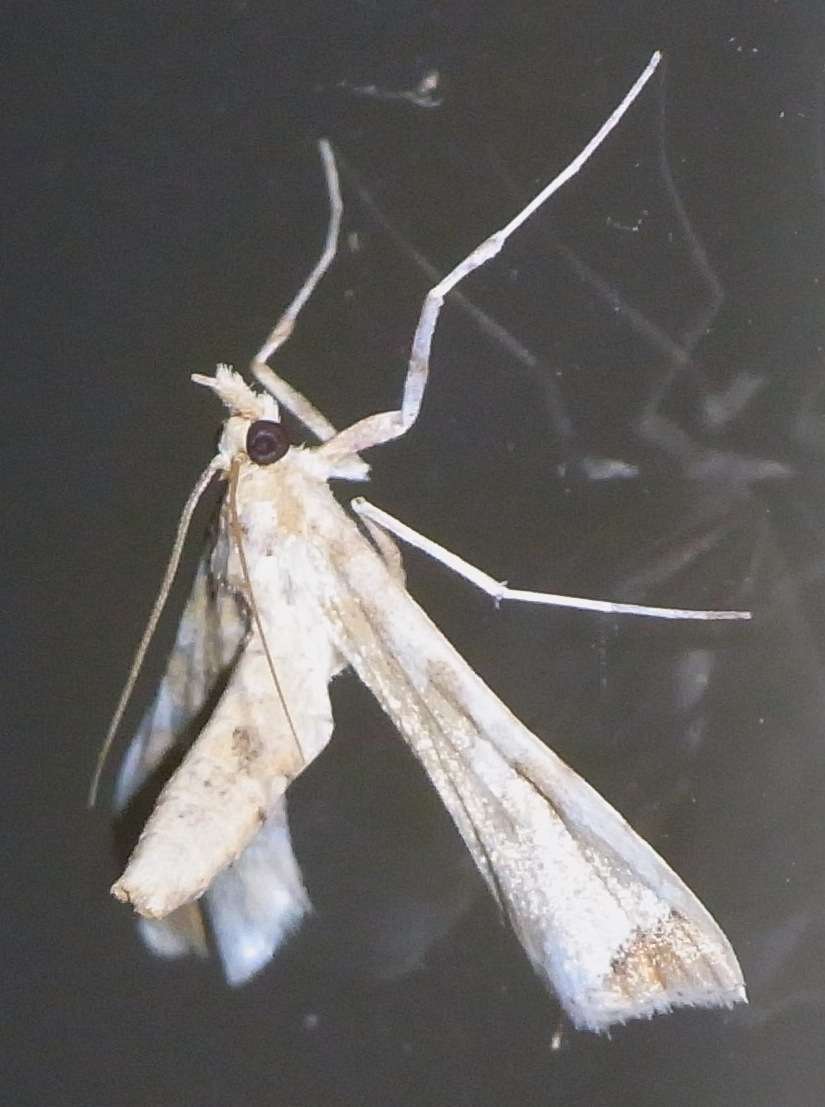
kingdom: Animalia
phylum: Arthropoda
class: Insecta
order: Lepidoptera
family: Crambidae
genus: Sceliodes
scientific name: Sceliodes cordalis
